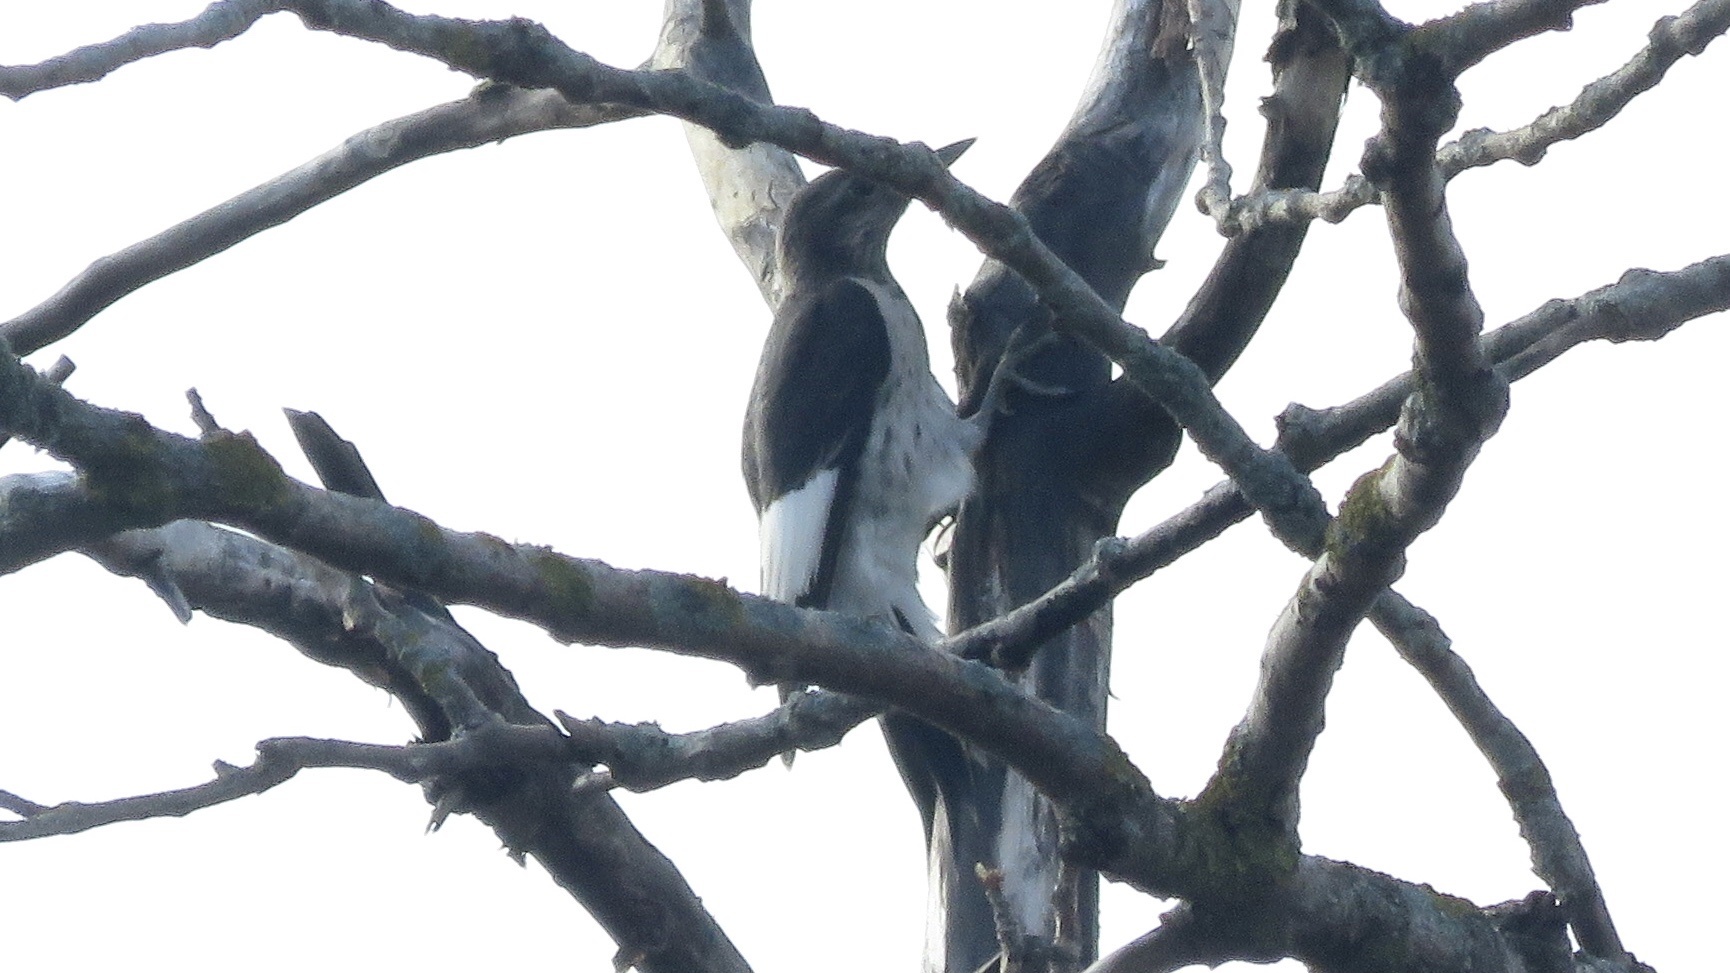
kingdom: Animalia
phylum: Chordata
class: Aves
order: Piciformes
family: Picidae
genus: Melanerpes
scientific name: Melanerpes erythrocephalus
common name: Red-headed woodpecker
